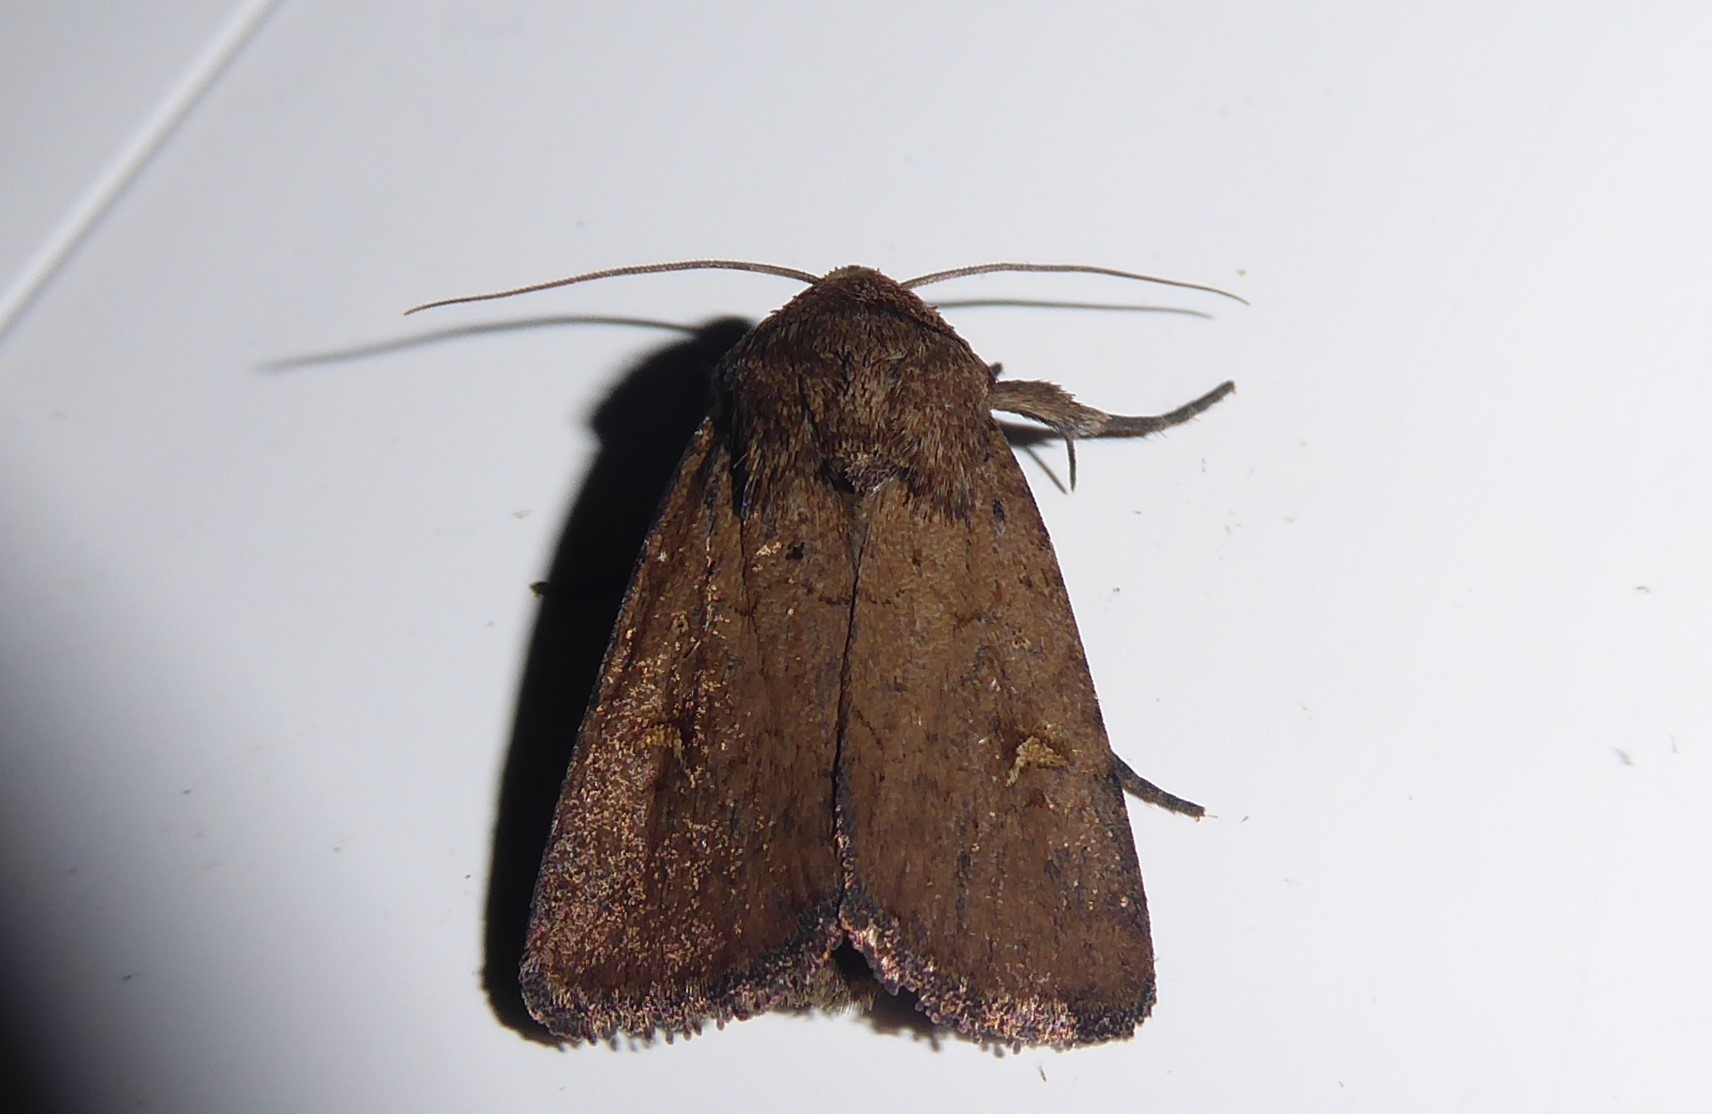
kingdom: Animalia
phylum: Arthropoda
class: Insecta
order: Lepidoptera
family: Noctuidae
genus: Proteuxoa
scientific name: Proteuxoa tetronycha
